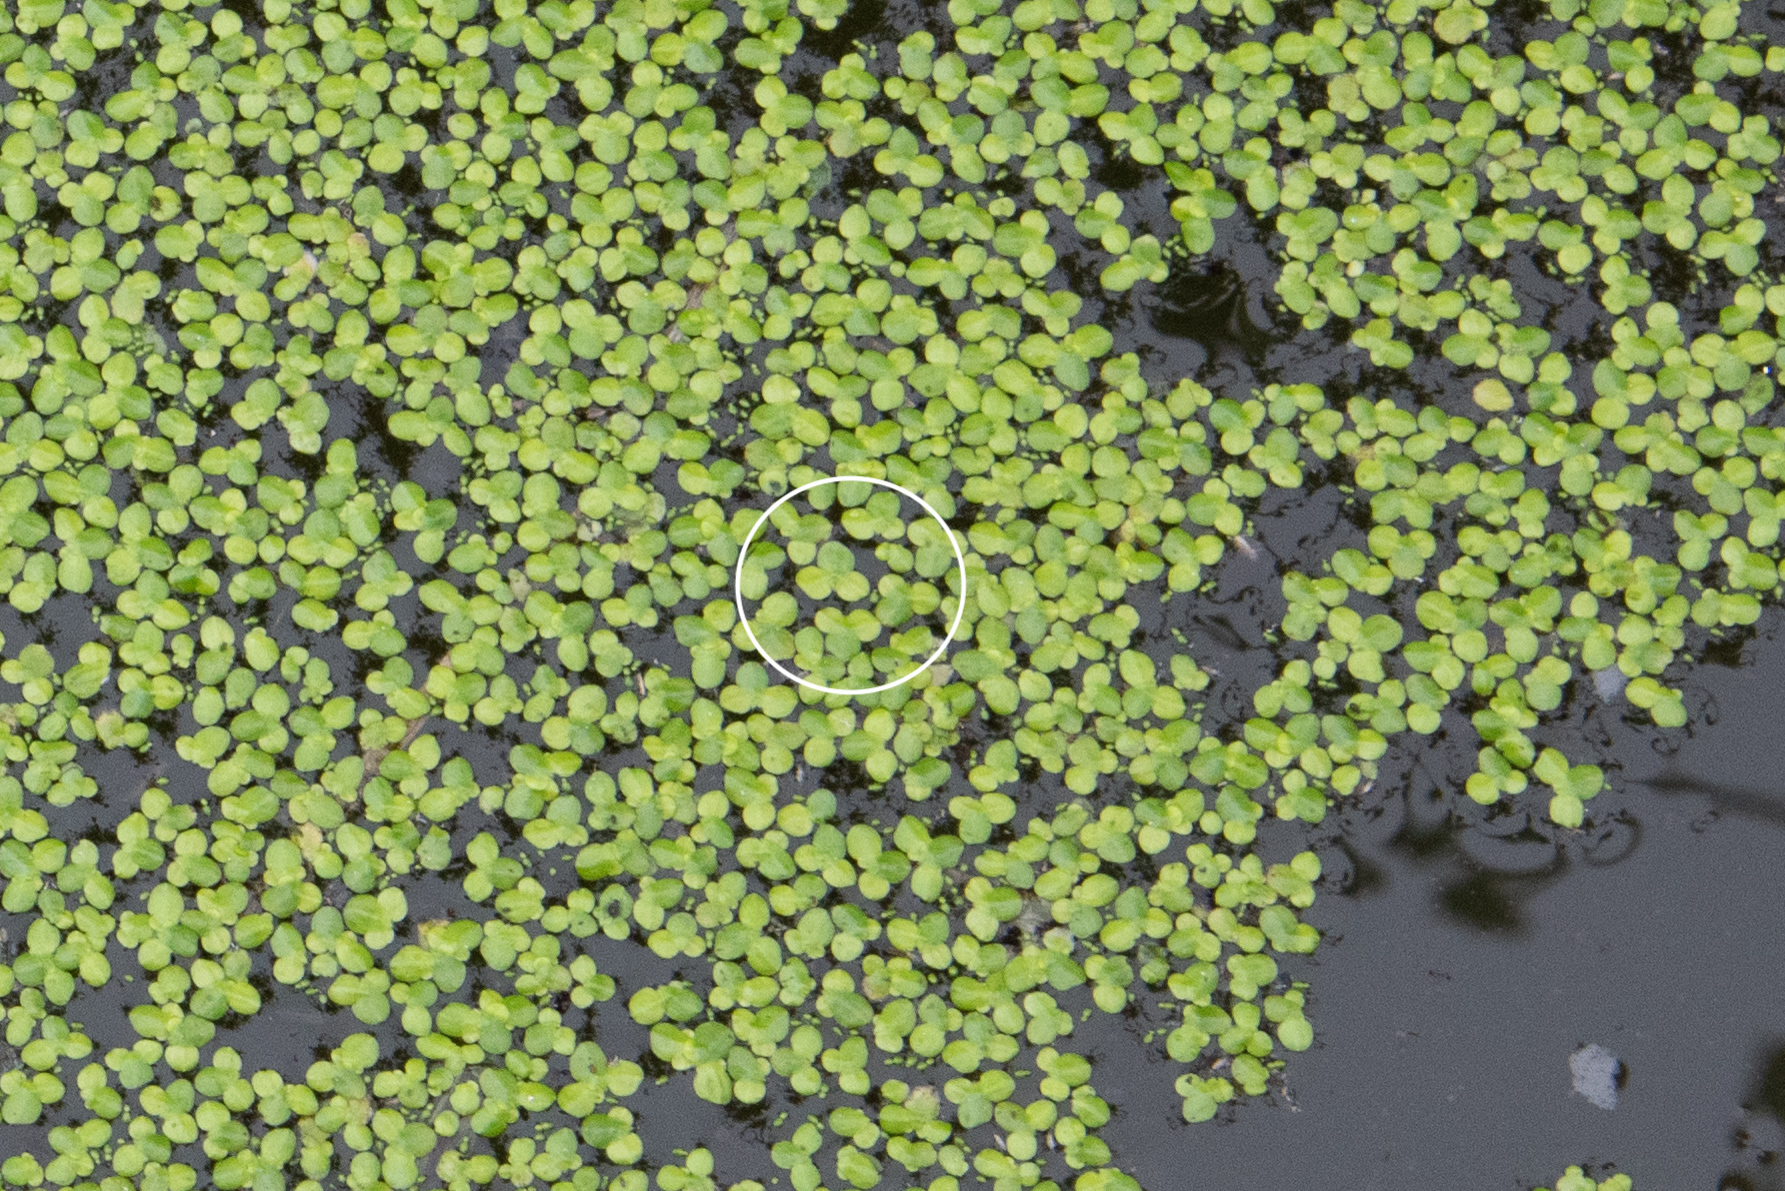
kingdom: Plantae
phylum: Tracheophyta
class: Liliopsida
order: Alismatales
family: Araceae
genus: Lemna
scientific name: Lemna aequinoctialis
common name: Duckweed
